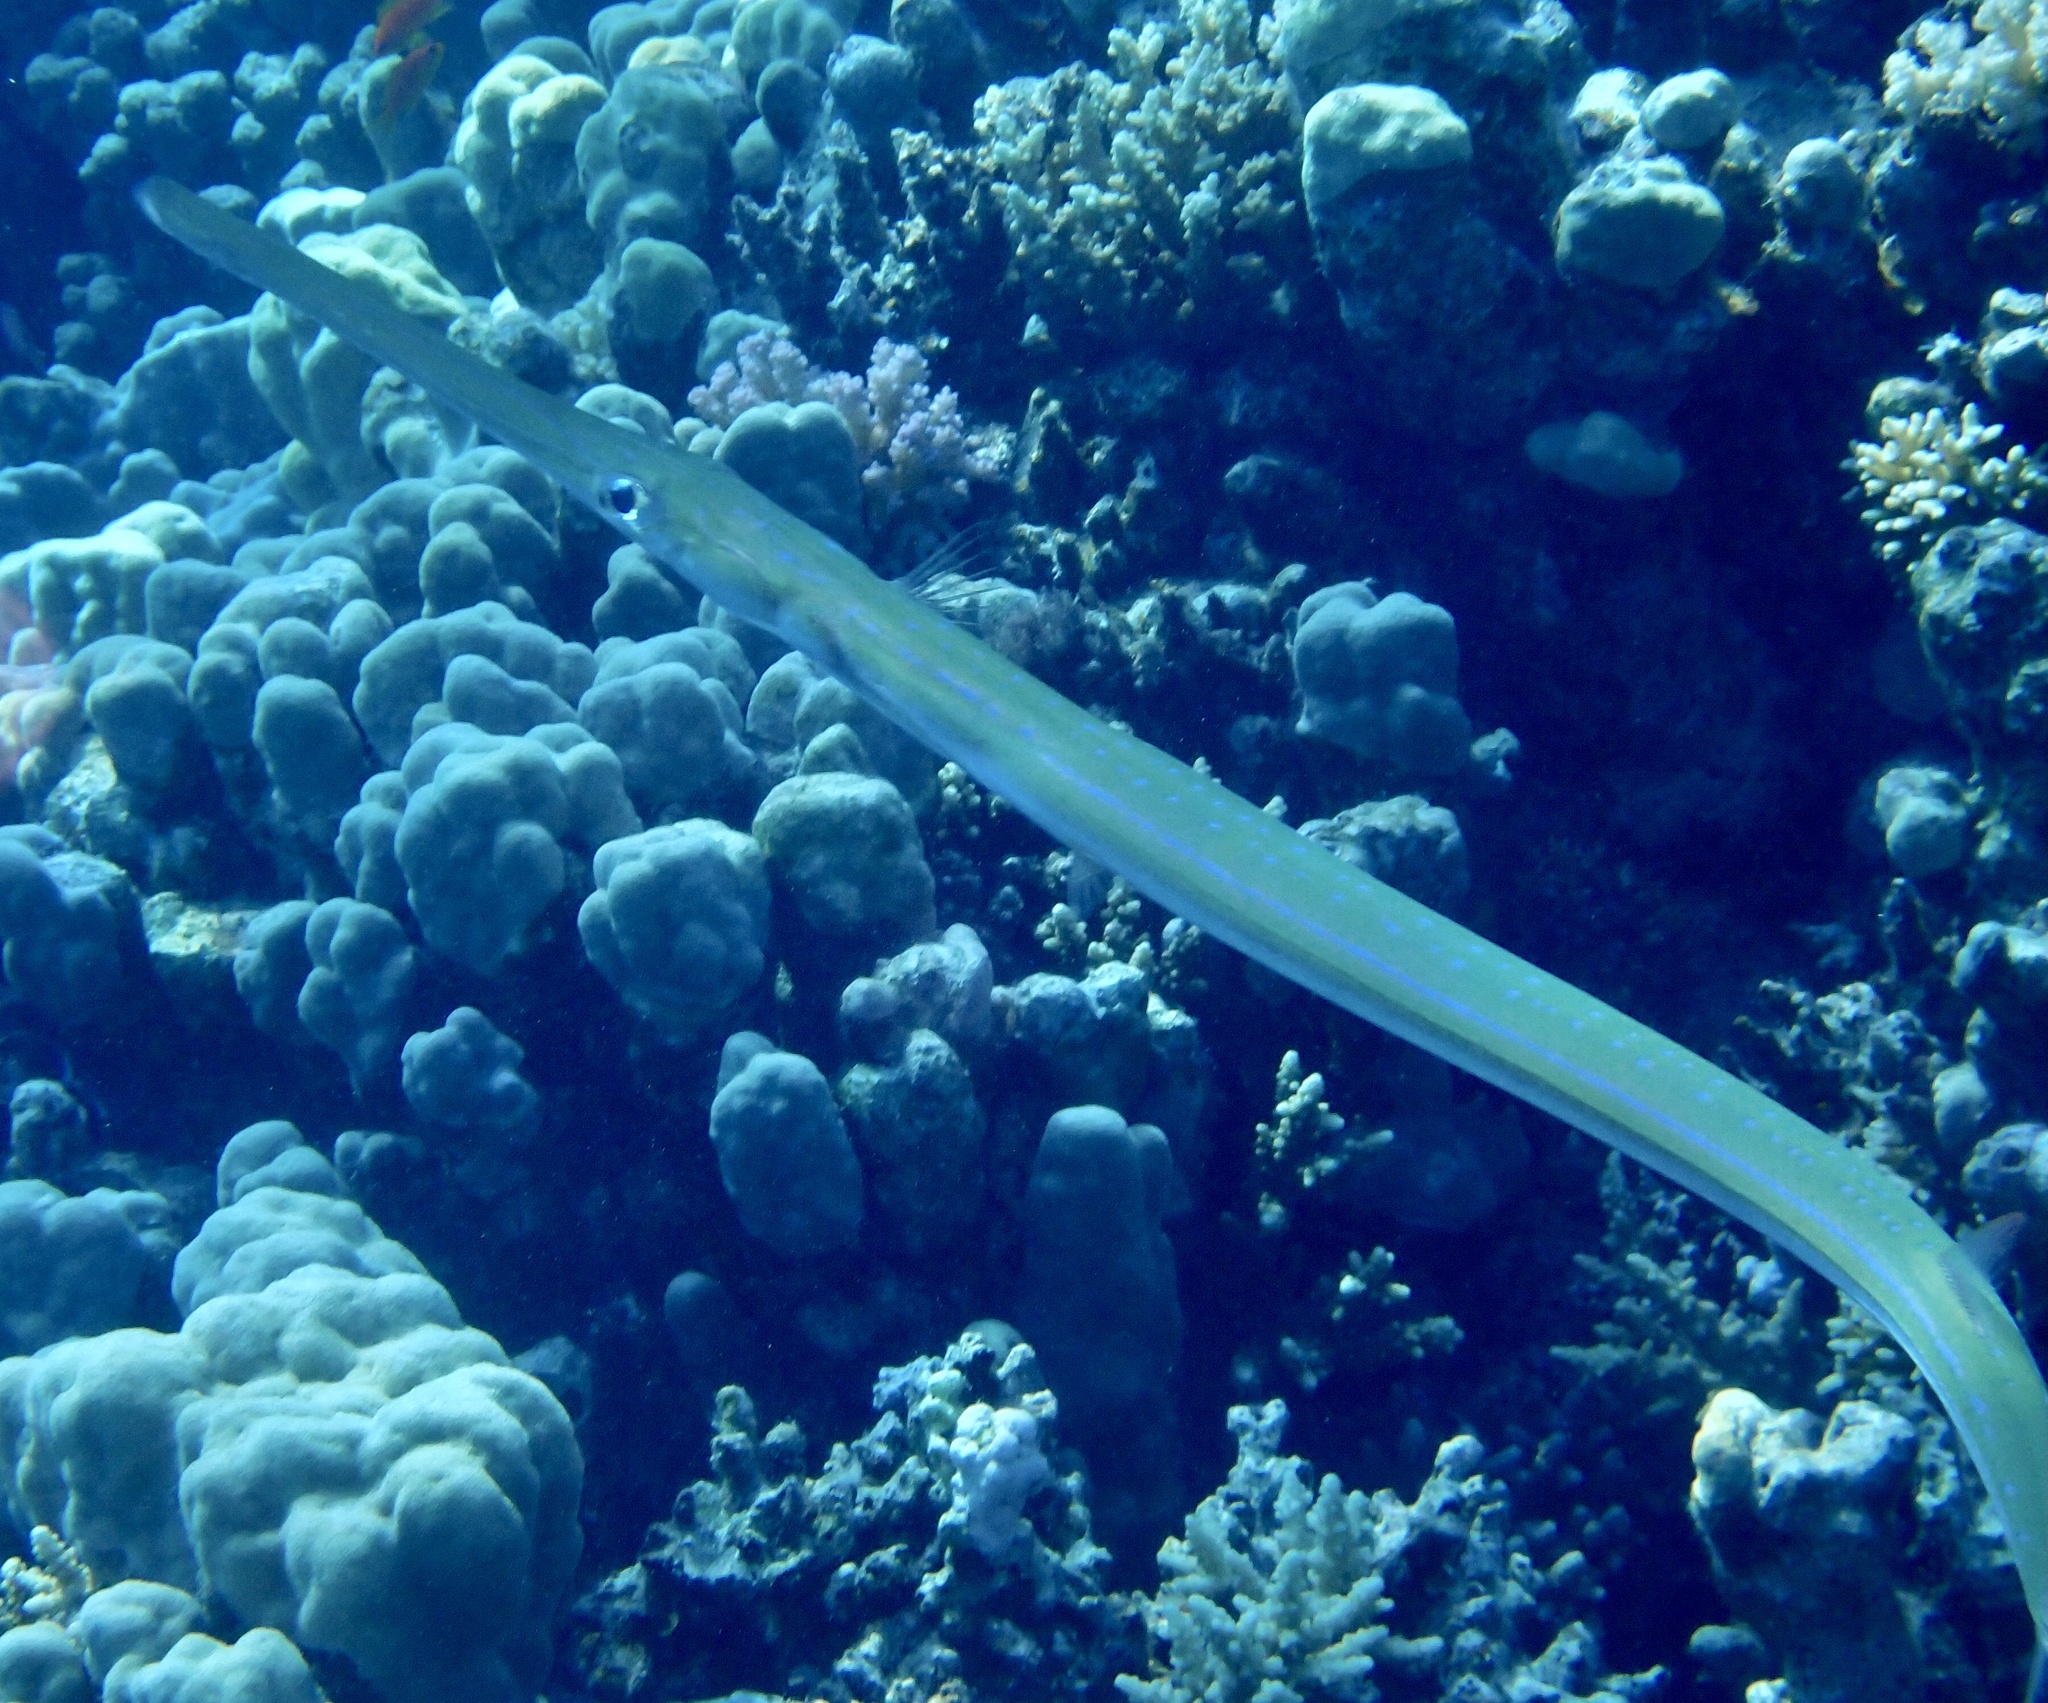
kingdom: Animalia
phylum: Chordata
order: Syngnathiformes
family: Fistulariidae
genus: Fistularia
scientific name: Fistularia commersonii
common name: Bluespotted cornetfish
